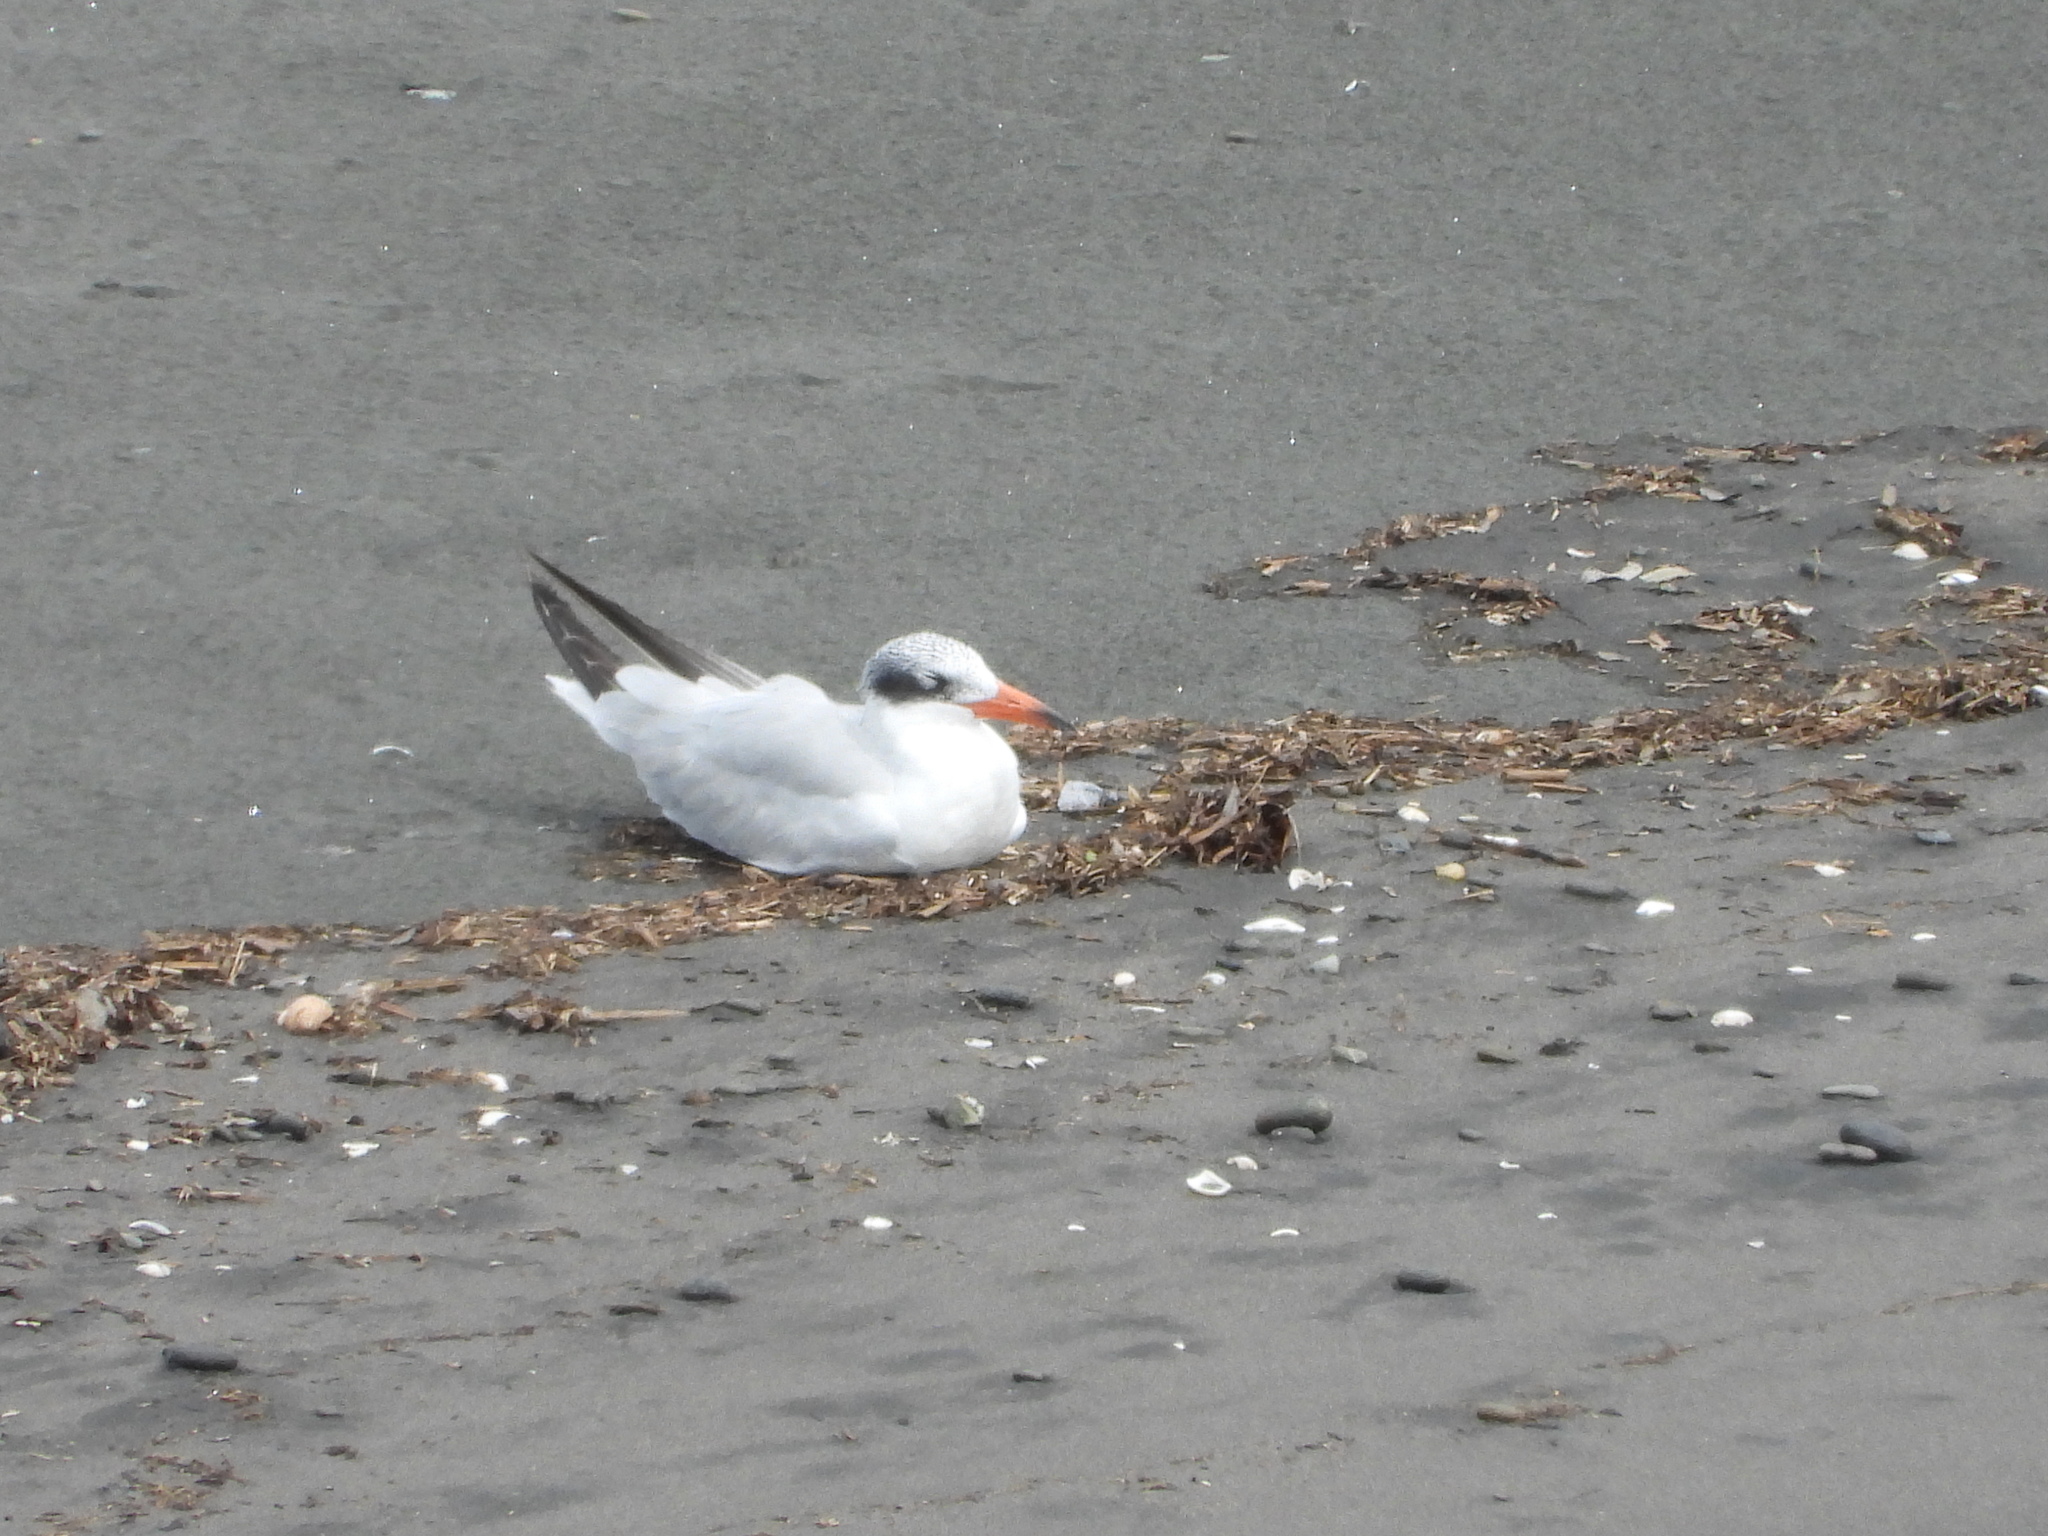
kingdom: Animalia
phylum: Chordata
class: Aves
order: Charadriiformes
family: Laridae
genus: Hydroprogne
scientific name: Hydroprogne caspia
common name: Caspian tern
